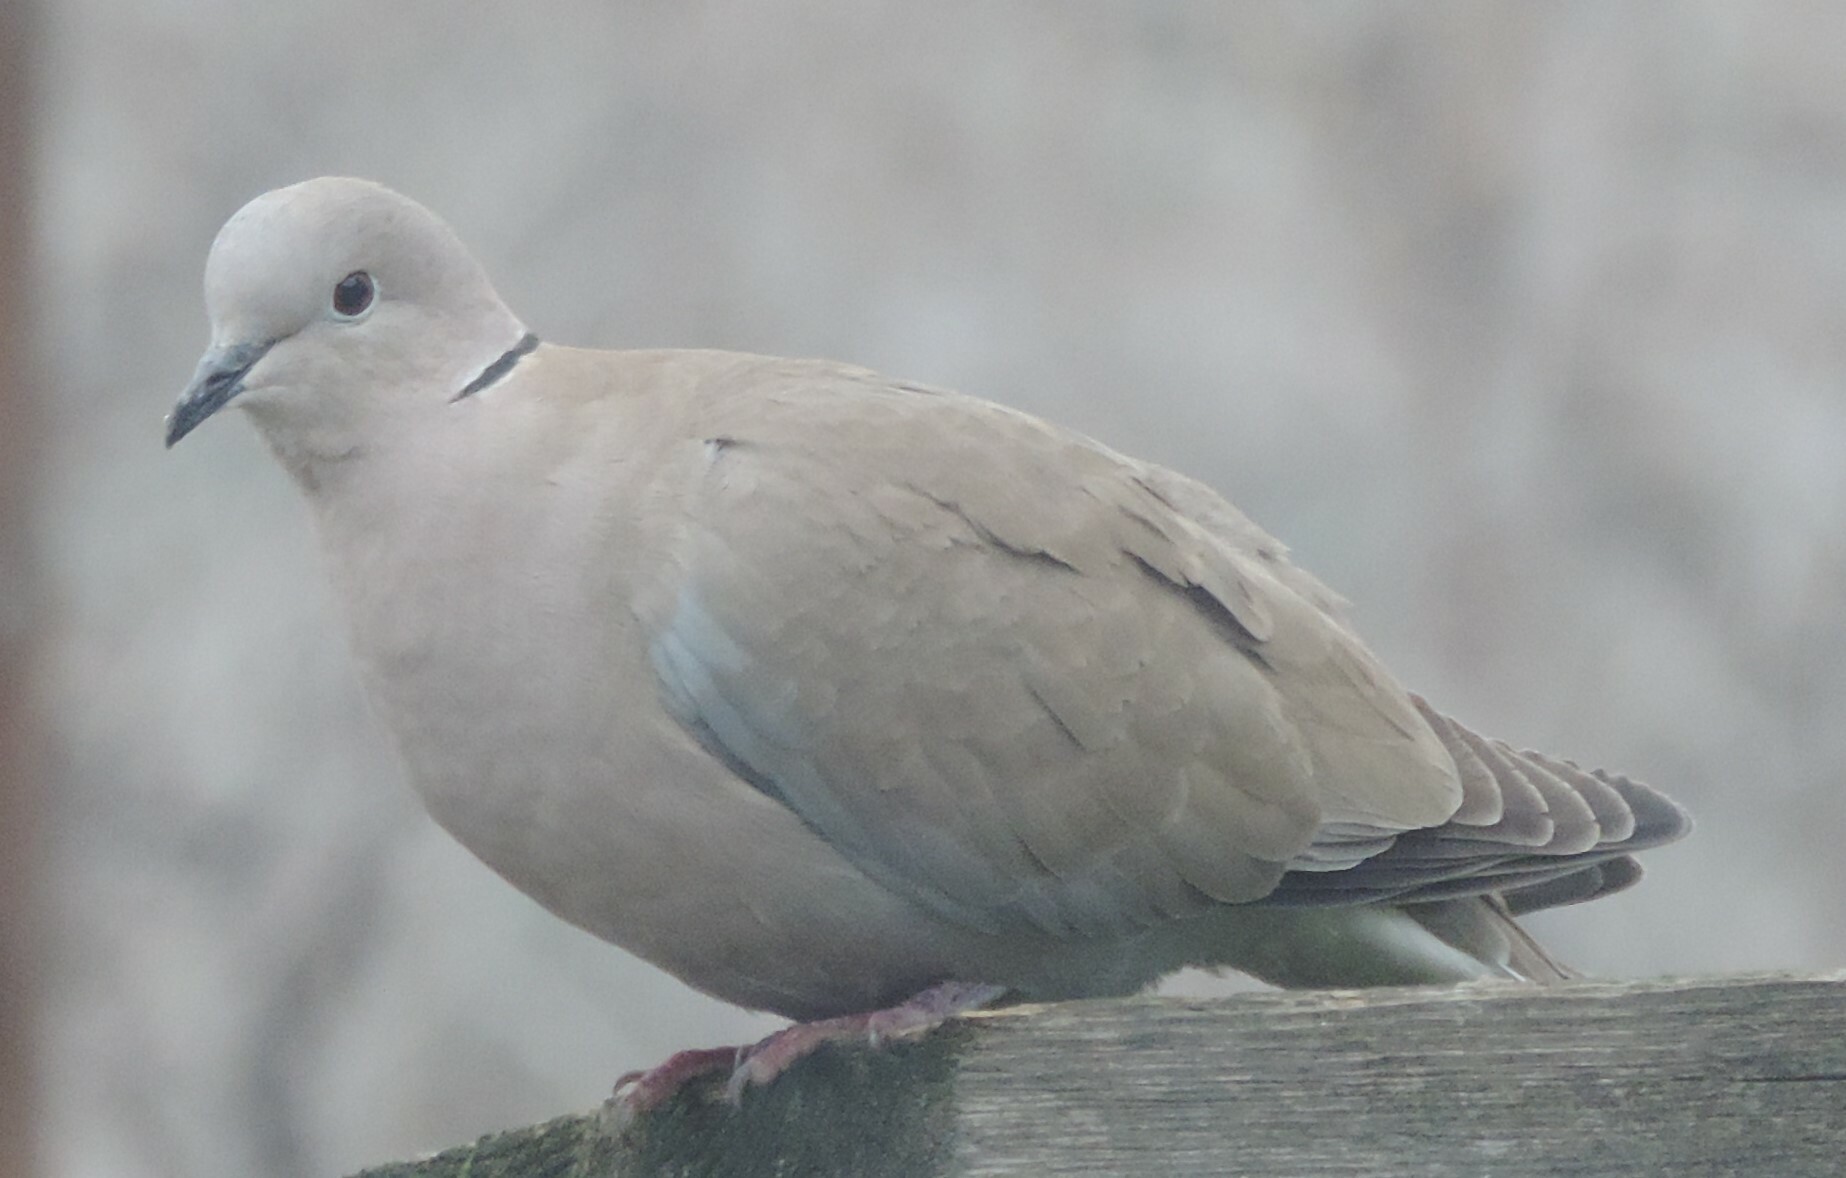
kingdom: Animalia
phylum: Chordata
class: Aves
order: Columbiformes
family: Columbidae
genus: Streptopelia
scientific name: Streptopelia decaocto
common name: Eurasian collared dove
